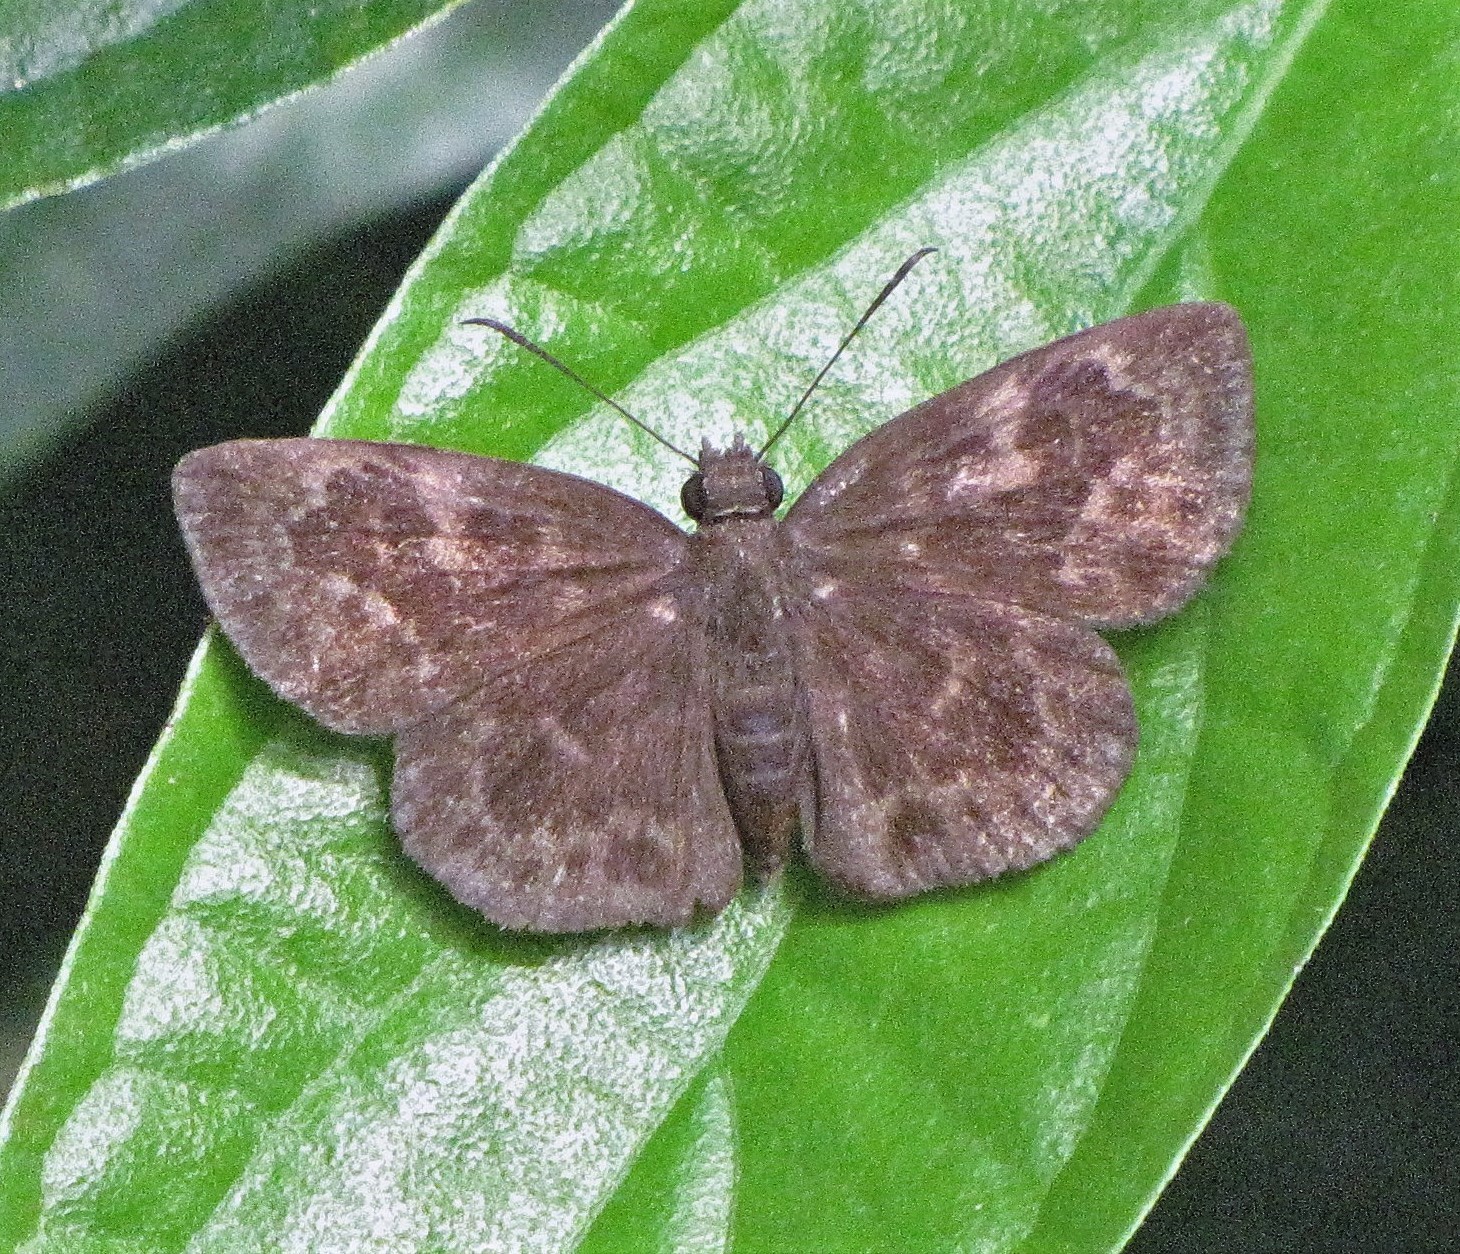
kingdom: Animalia
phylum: Arthropoda
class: Insecta
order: Lepidoptera
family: Hesperiidae
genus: Ouleus
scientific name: Ouleus fridericus
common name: Fridericus spreadwing
